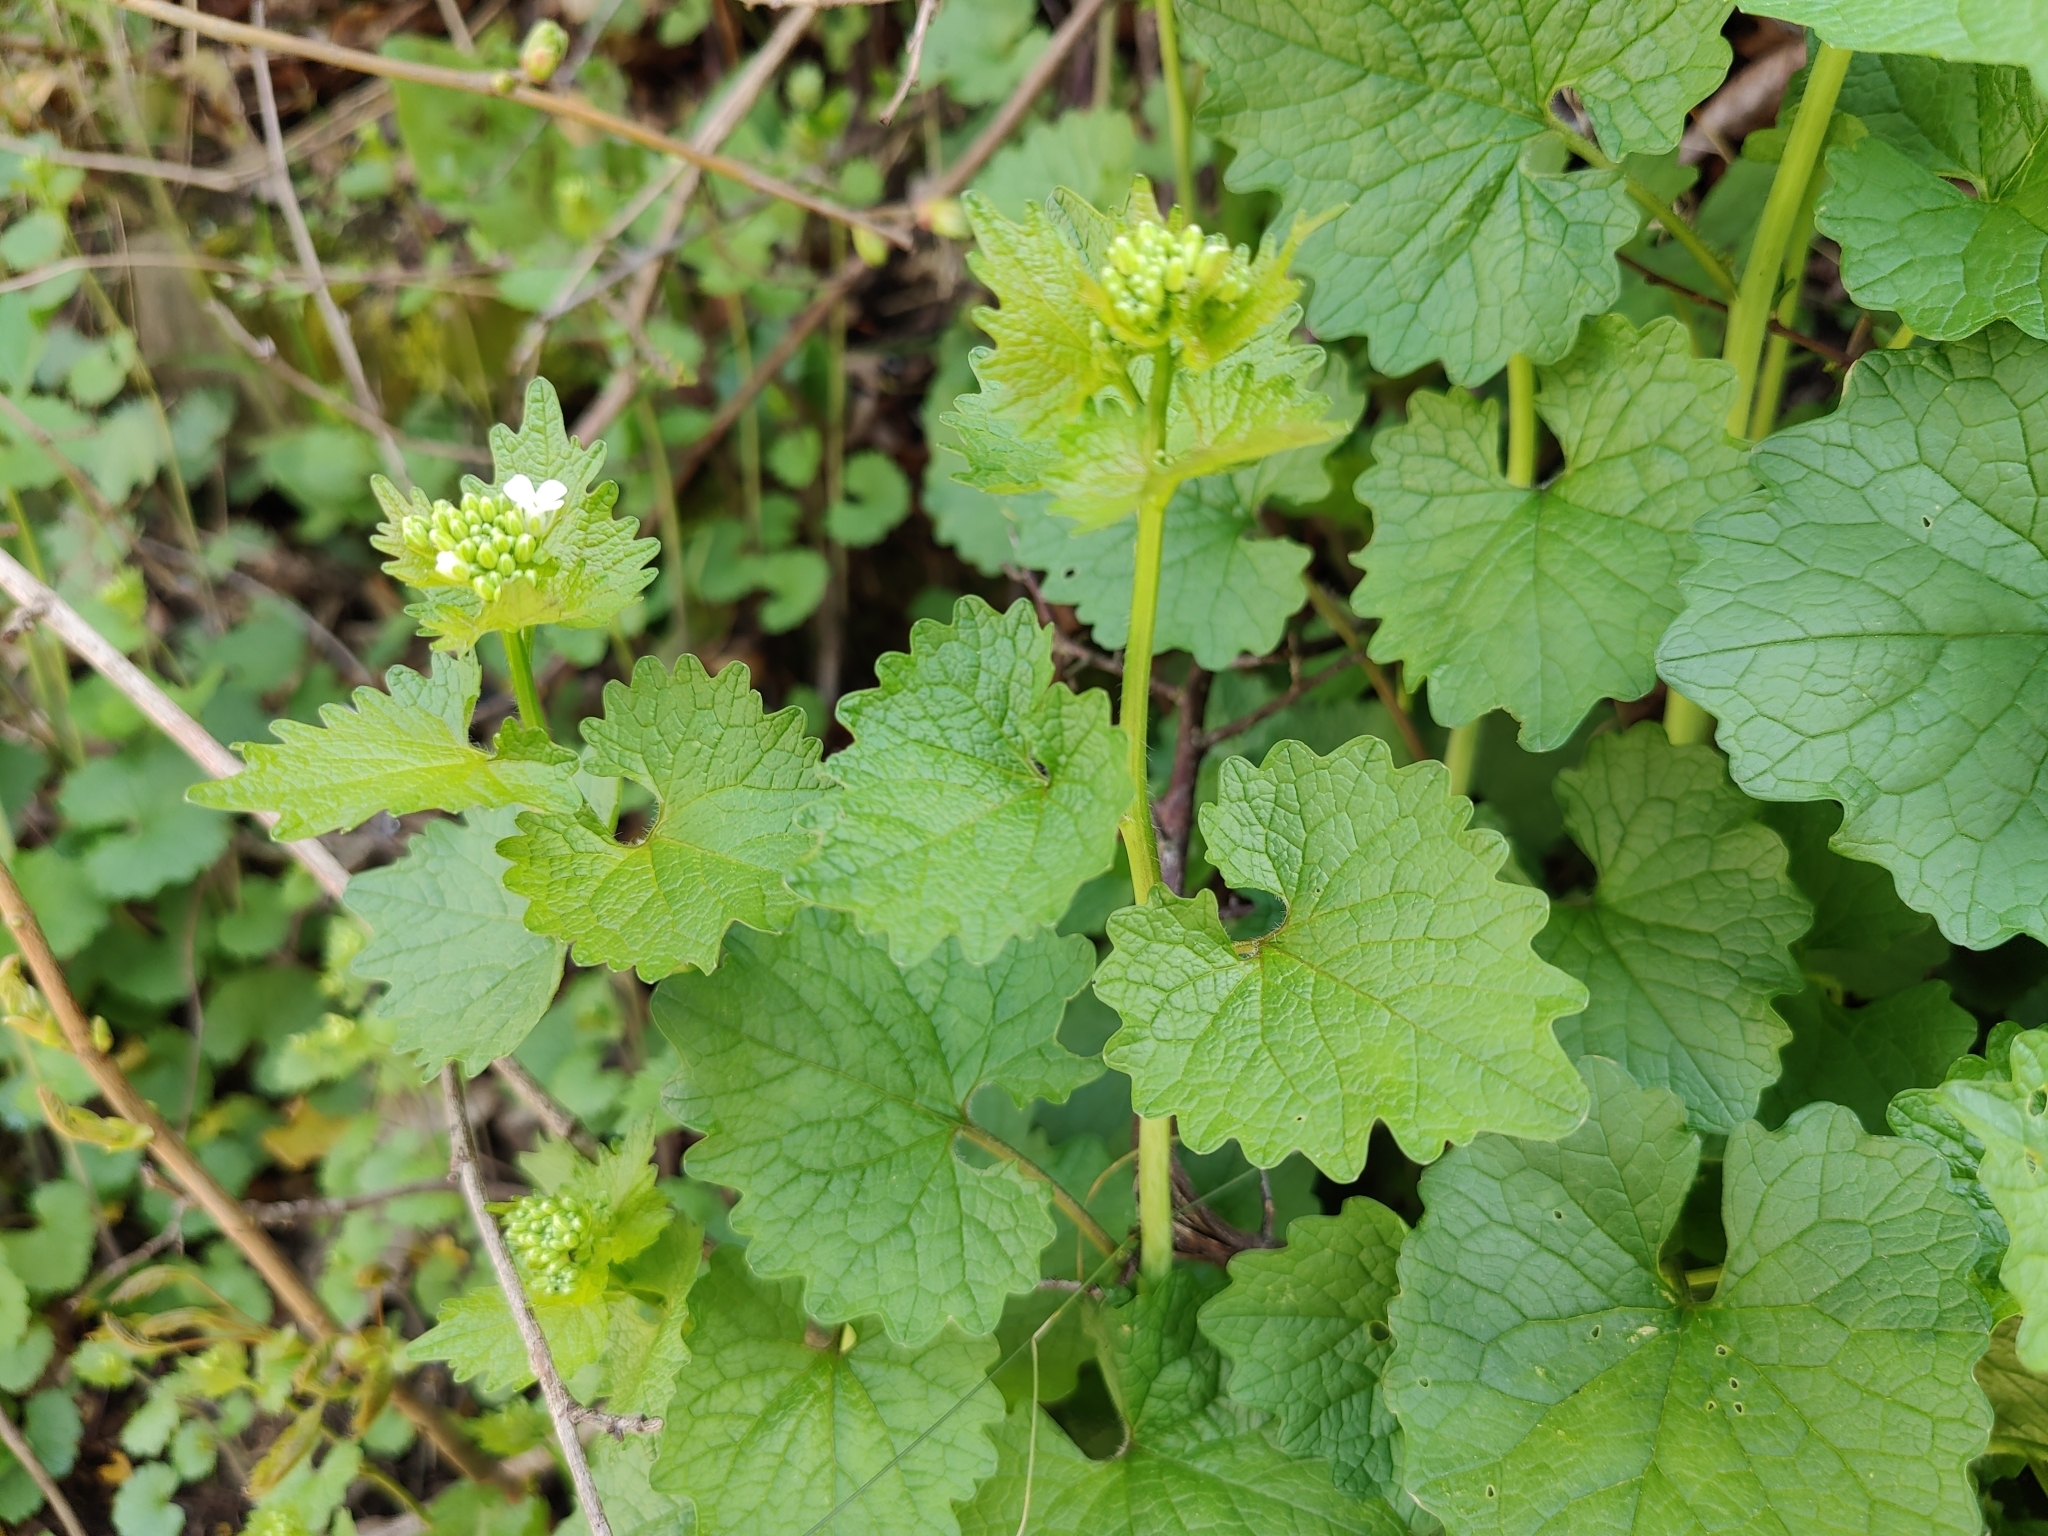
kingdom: Plantae
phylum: Tracheophyta
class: Magnoliopsida
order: Brassicales
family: Brassicaceae
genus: Alliaria
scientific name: Alliaria petiolata
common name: Garlic mustard
